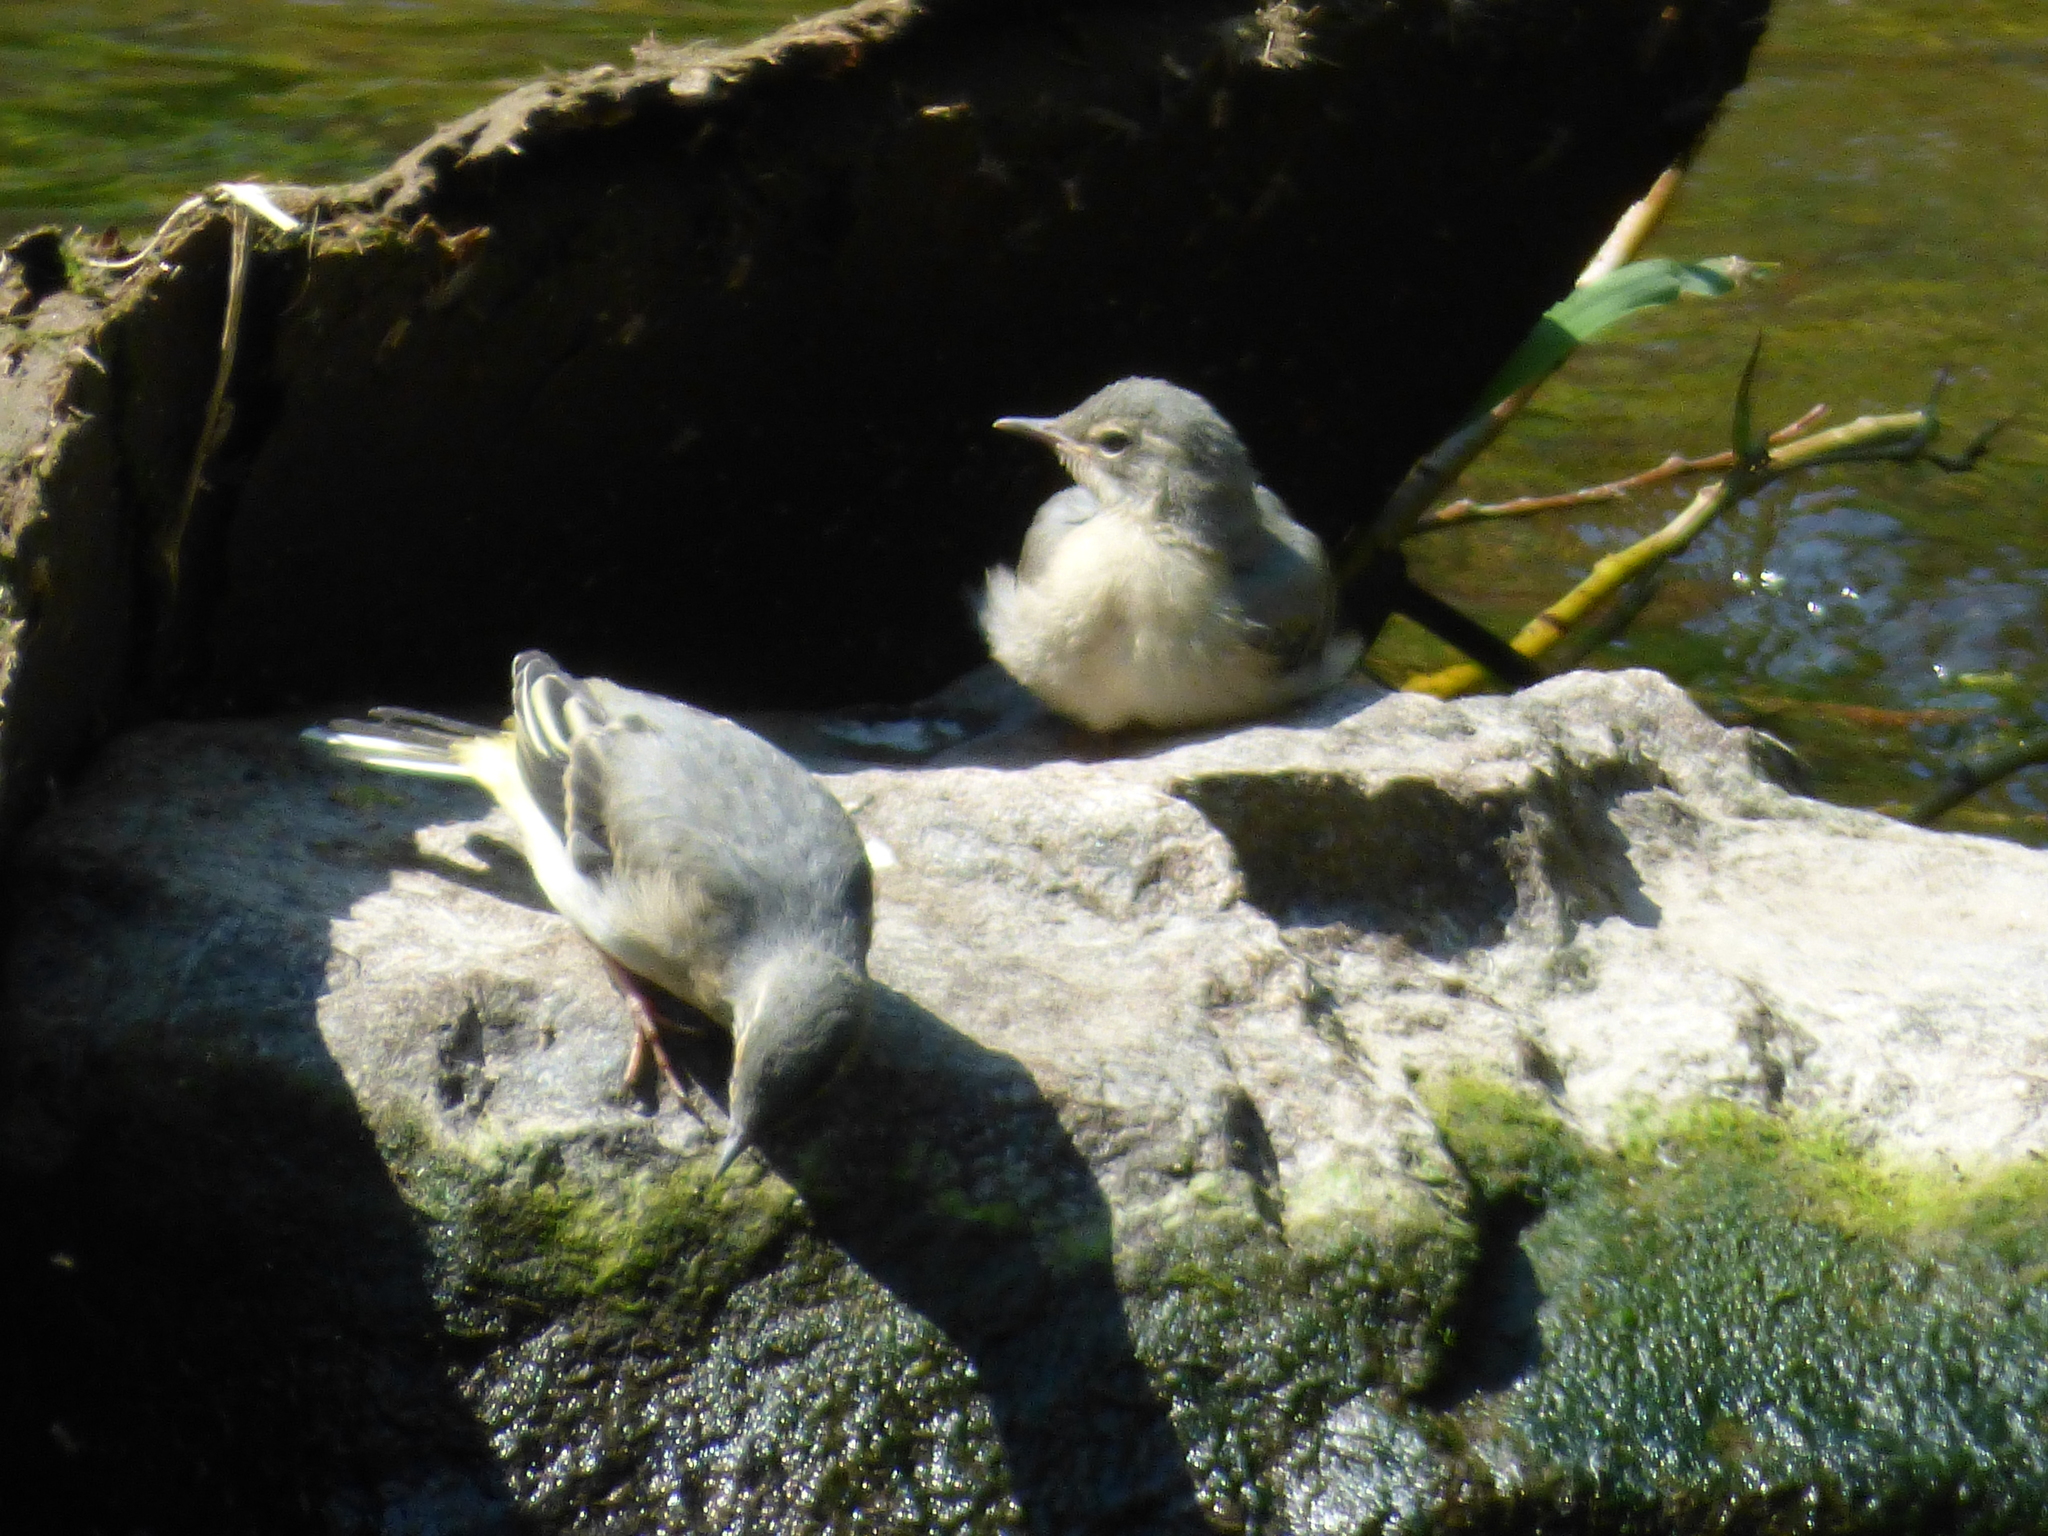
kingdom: Animalia
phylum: Chordata
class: Aves
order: Passeriformes
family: Motacillidae
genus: Motacilla
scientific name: Motacilla cinerea
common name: Grey wagtail
